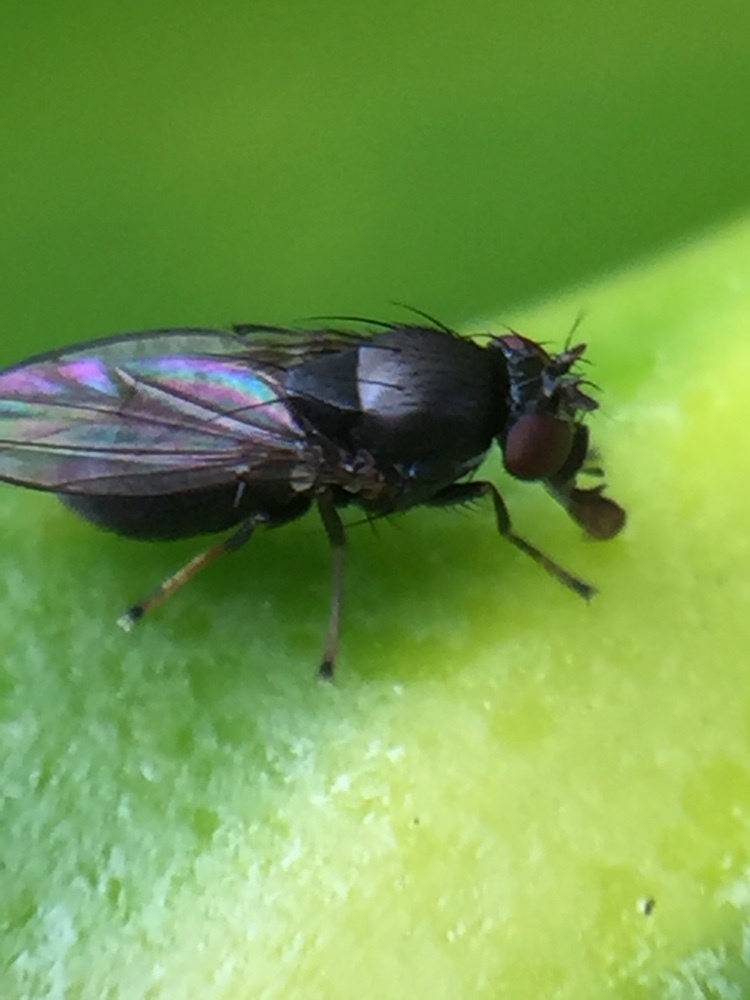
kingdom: Animalia
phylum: Arthropoda
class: Insecta
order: Diptera
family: Ephydridae
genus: Clasiopella
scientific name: Clasiopella austra
